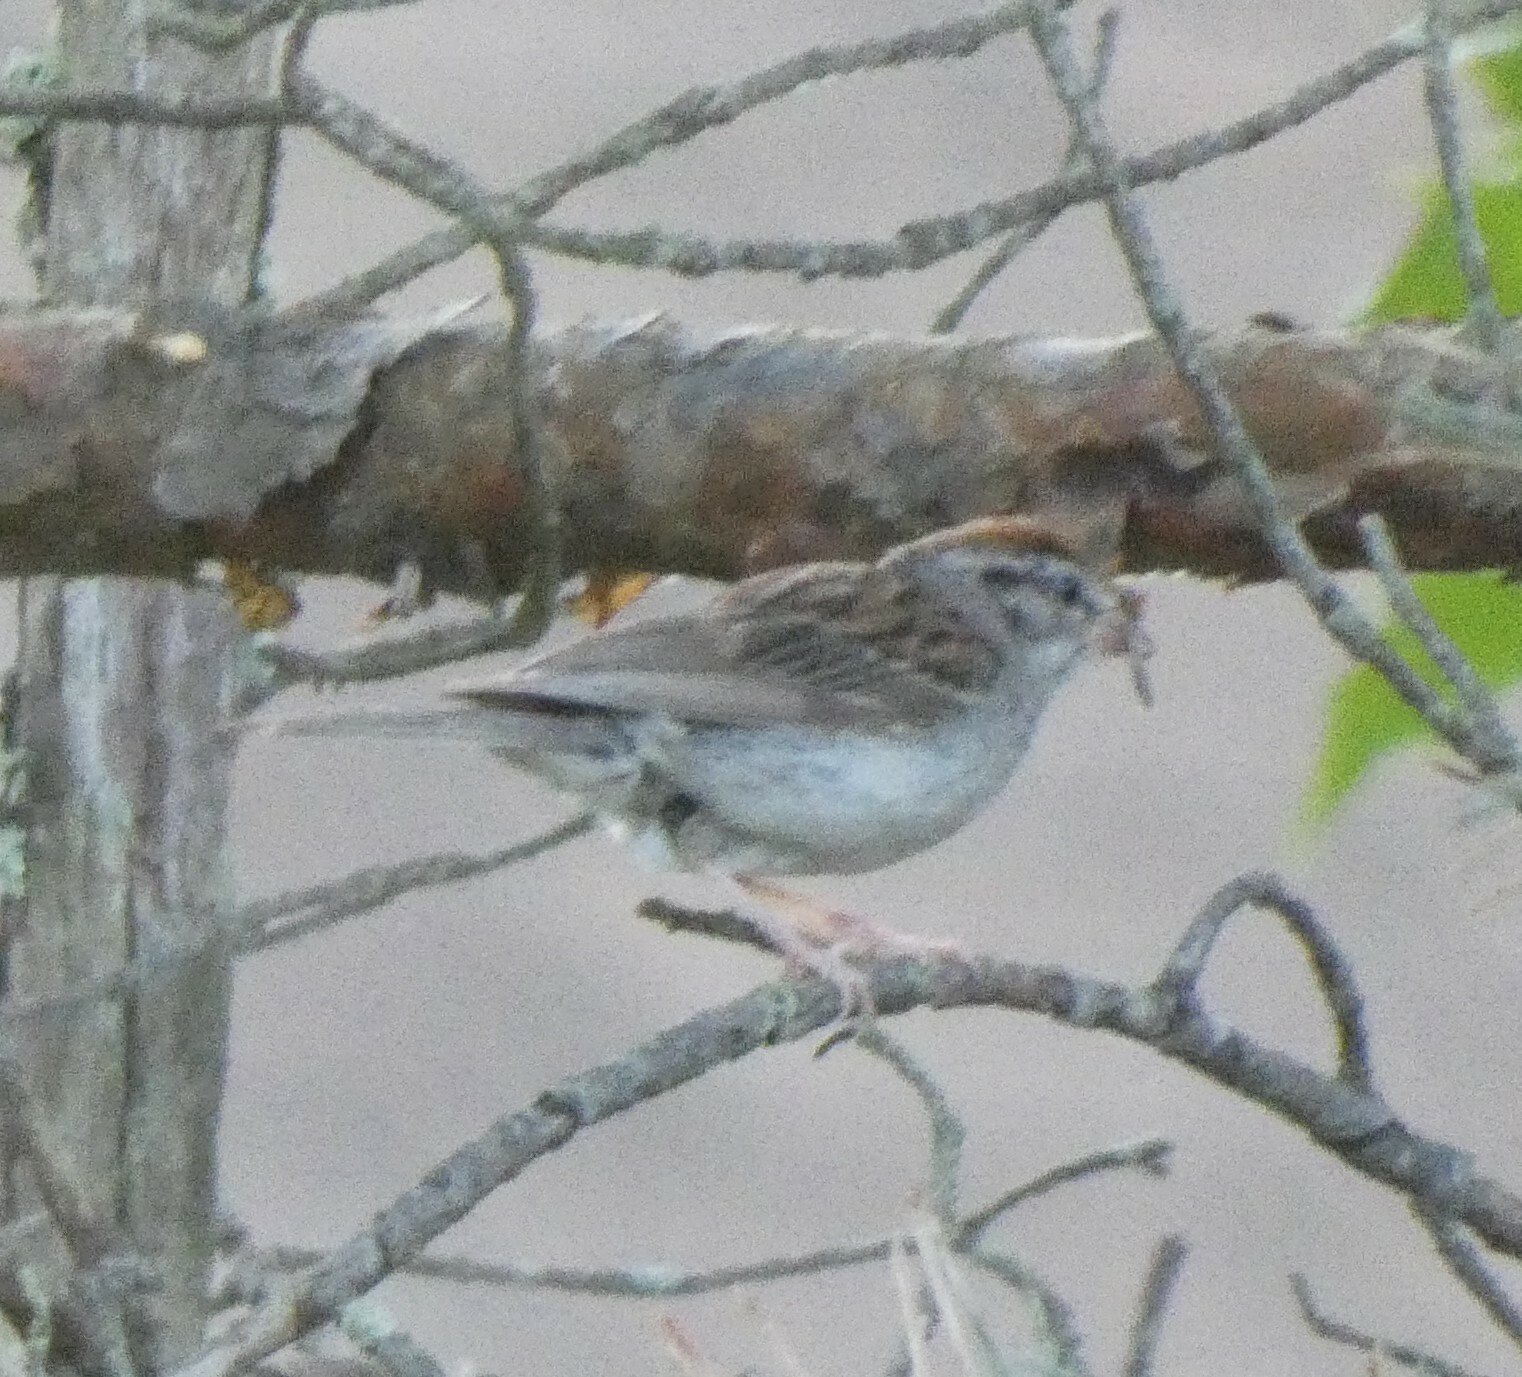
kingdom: Animalia
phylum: Chordata
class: Aves
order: Passeriformes
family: Passerellidae
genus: Spizella
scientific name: Spizella passerina
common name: Chipping sparrow
